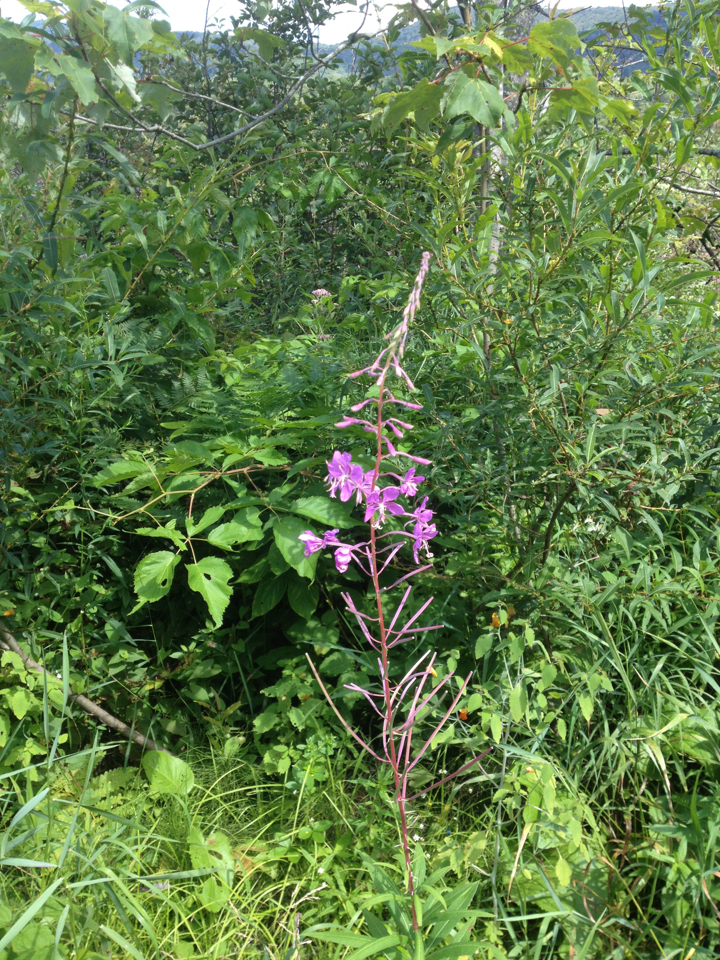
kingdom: Plantae
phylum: Tracheophyta
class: Magnoliopsida
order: Myrtales
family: Onagraceae
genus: Chamaenerion
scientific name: Chamaenerion angustifolium
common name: Fireweed
